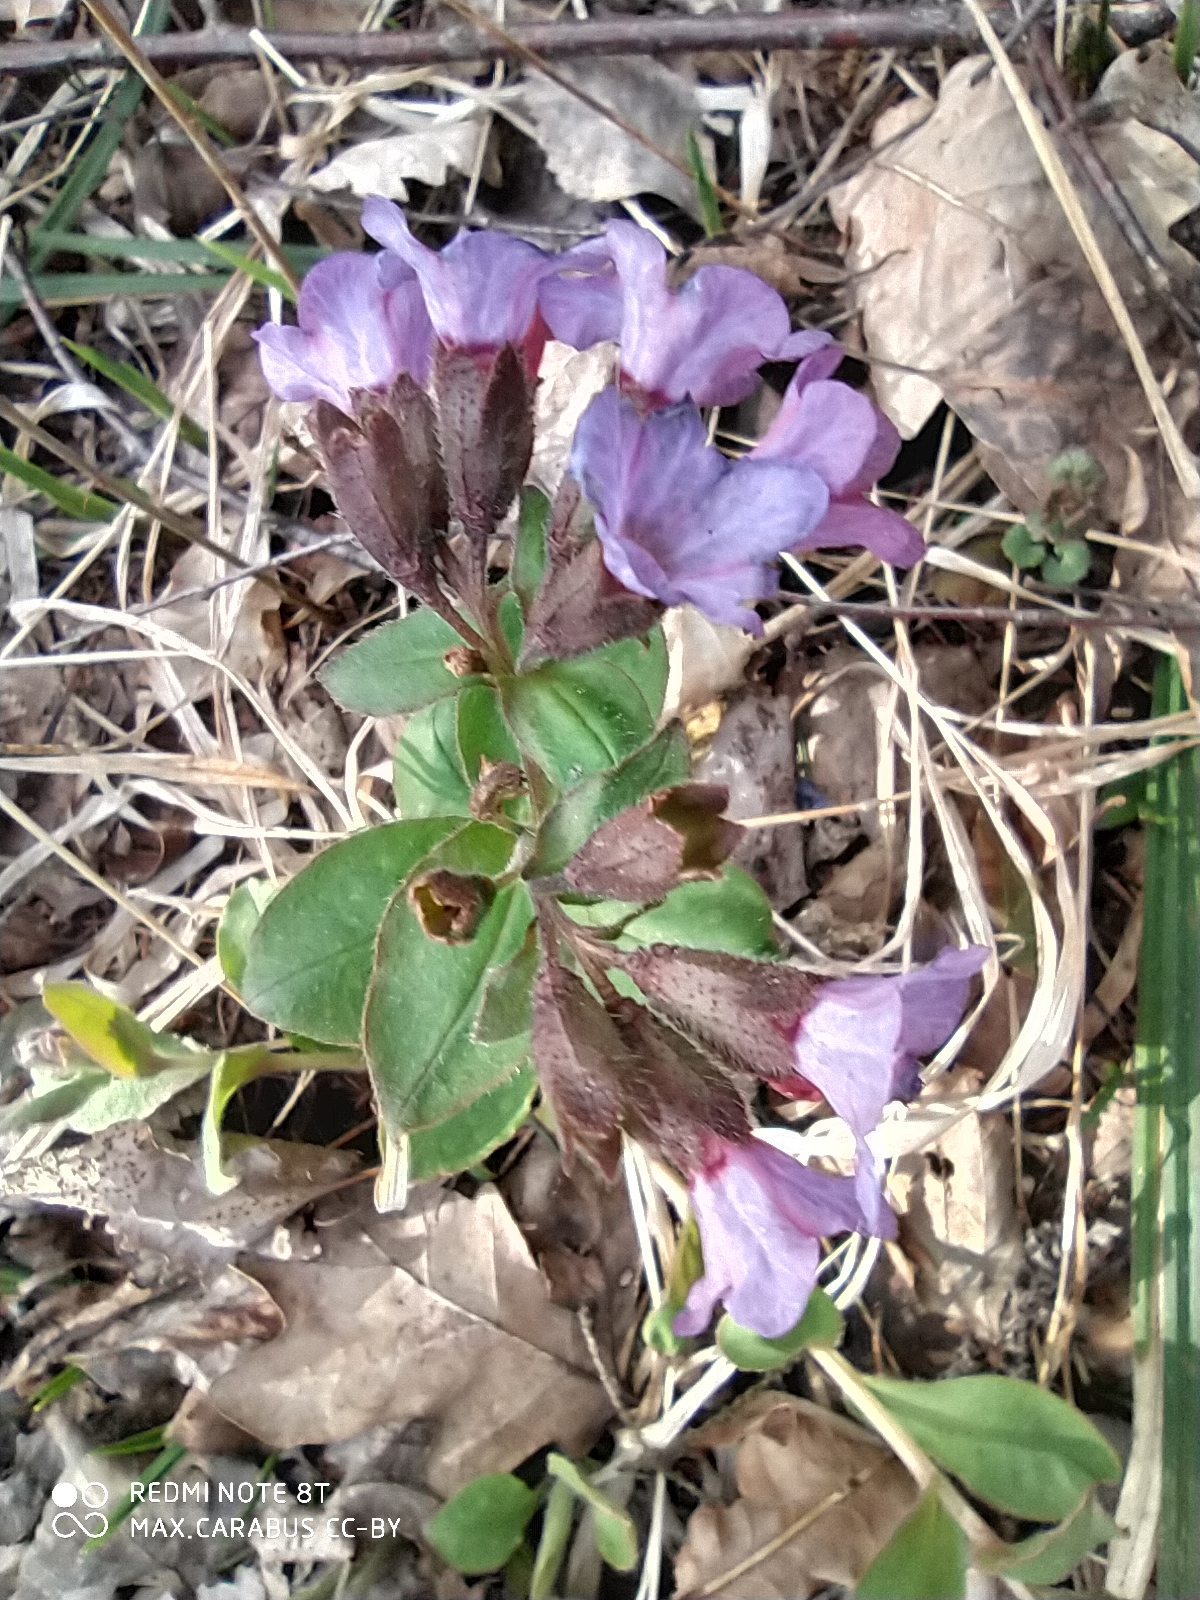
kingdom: Plantae
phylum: Tracheophyta
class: Magnoliopsida
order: Boraginales
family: Boraginaceae
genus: Pulmonaria
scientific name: Pulmonaria obscura
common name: Suffolk lungwort
